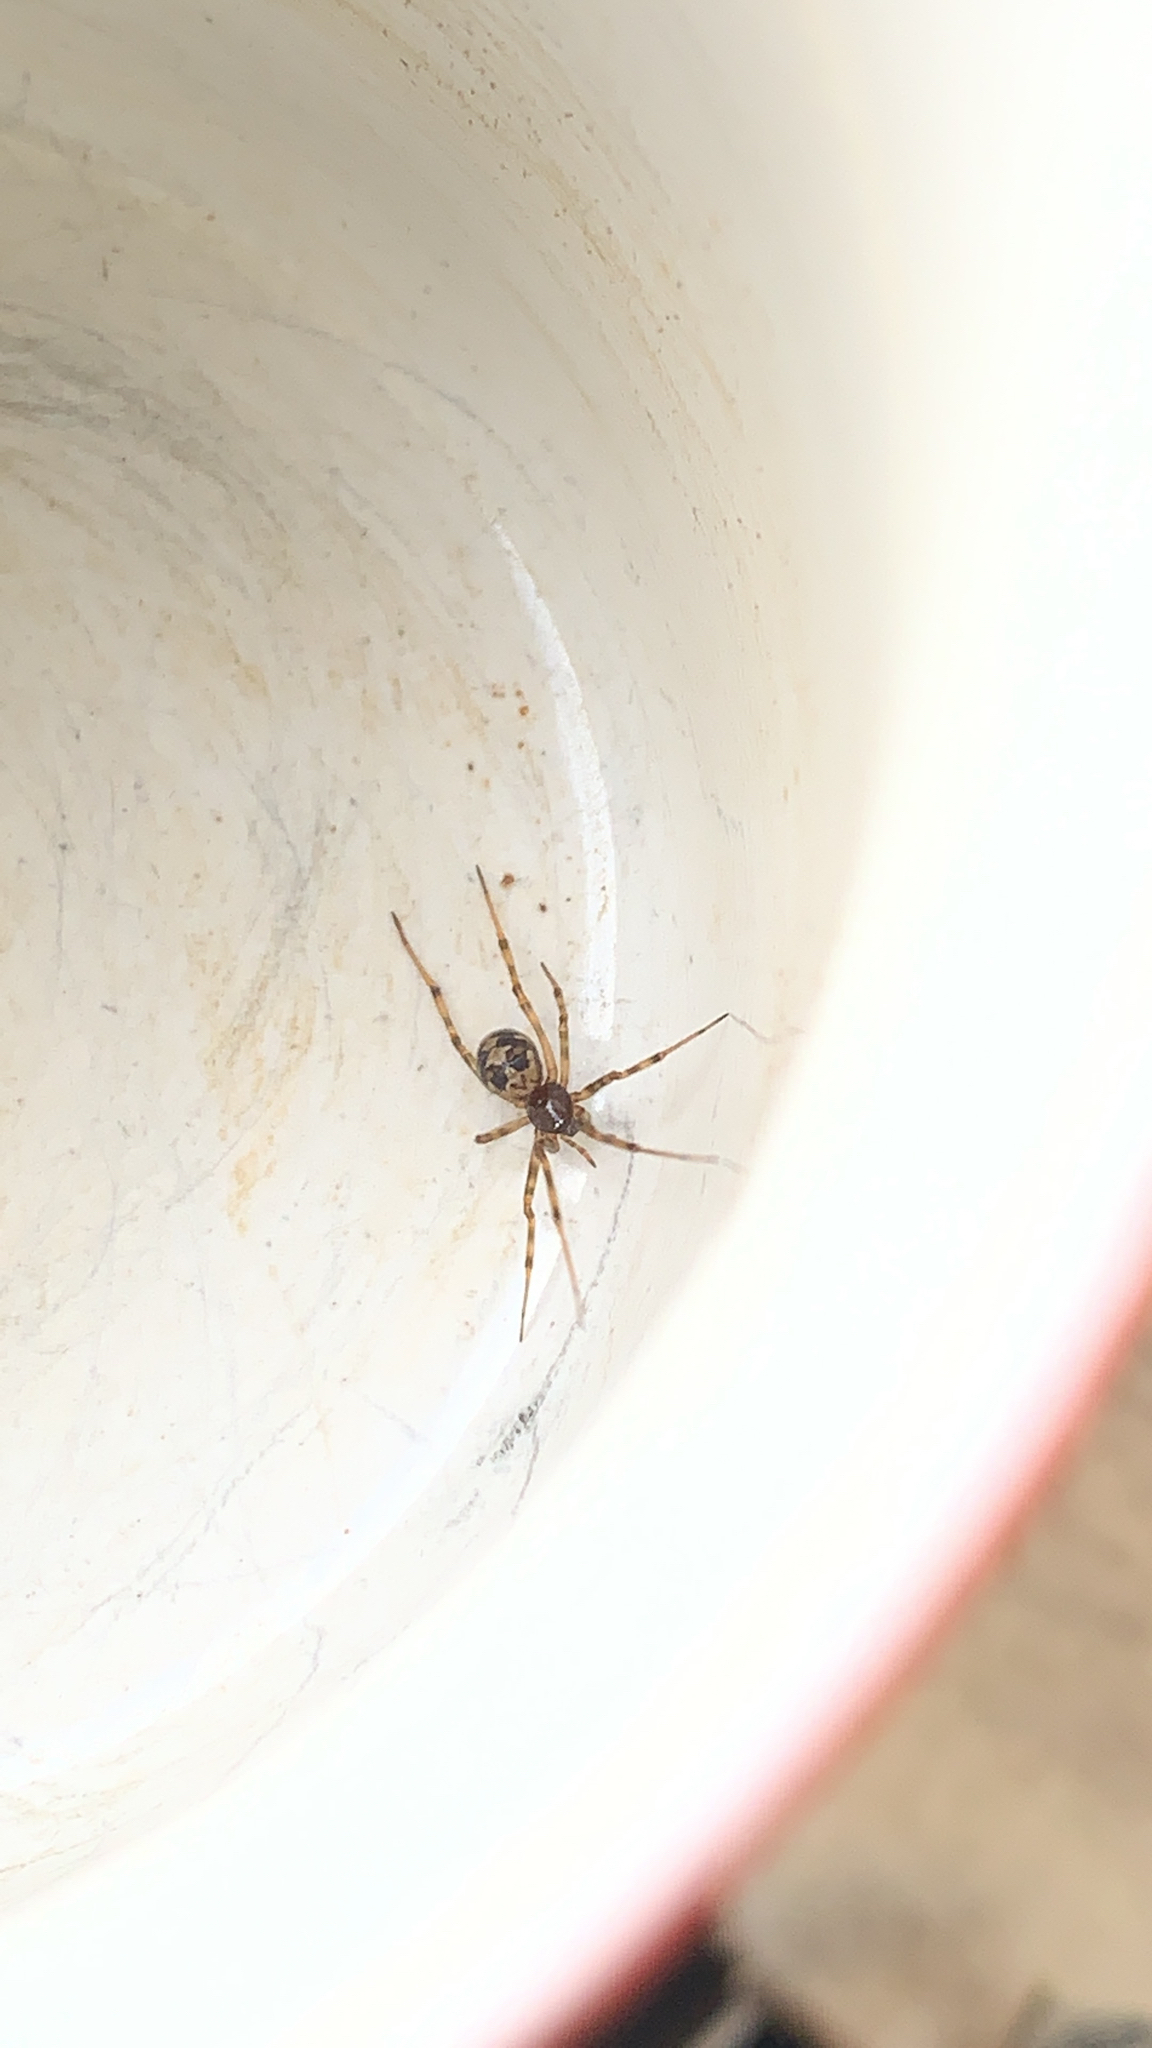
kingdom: Animalia
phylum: Arthropoda
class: Arachnida
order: Araneae
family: Theridiidae
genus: Steatoda
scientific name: Steatoda triangulosa
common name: Triangulate bud spider
